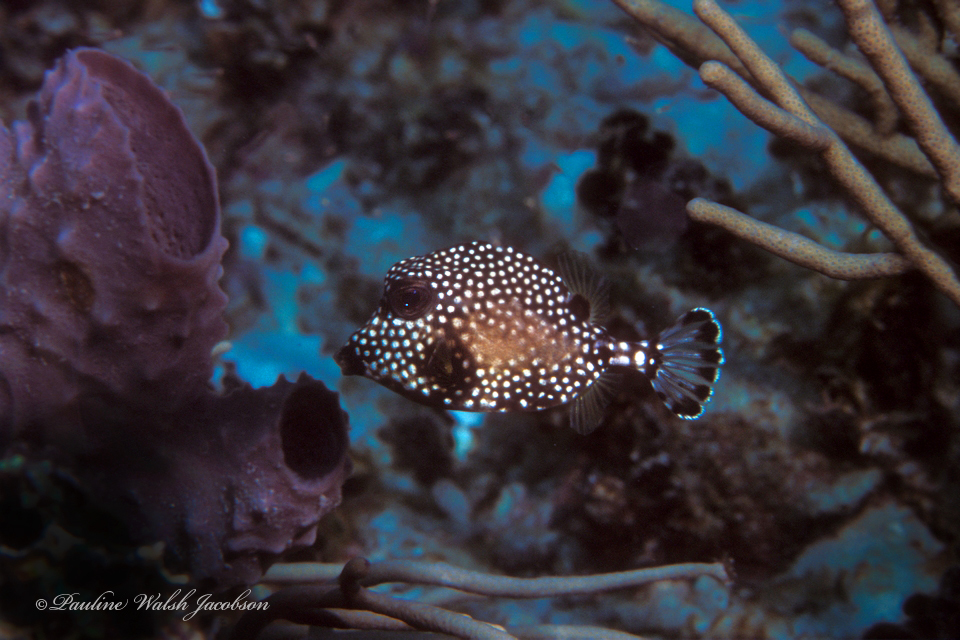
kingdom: Animalia
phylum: Chordata
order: Tetraodontiformes
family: Ostraciidae
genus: Lactophrys
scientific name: Lactophrys triqueter
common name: Smooth trunkfish
